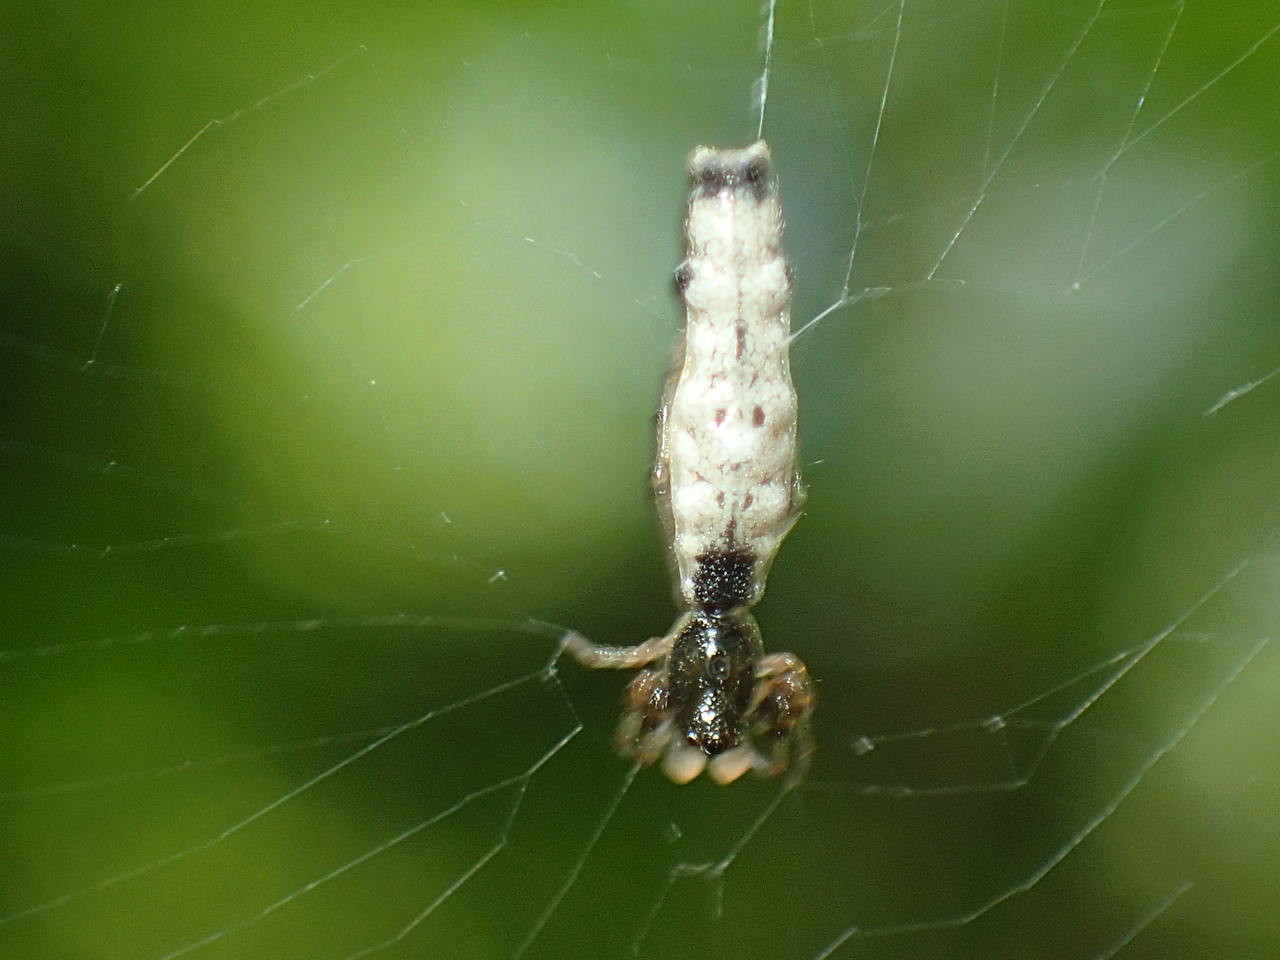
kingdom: Animalia
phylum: Arthropoda
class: Arachnida
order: Araneae
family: Araneidae
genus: Micrathena
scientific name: Micrathena gracilis
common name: Orb weavers
